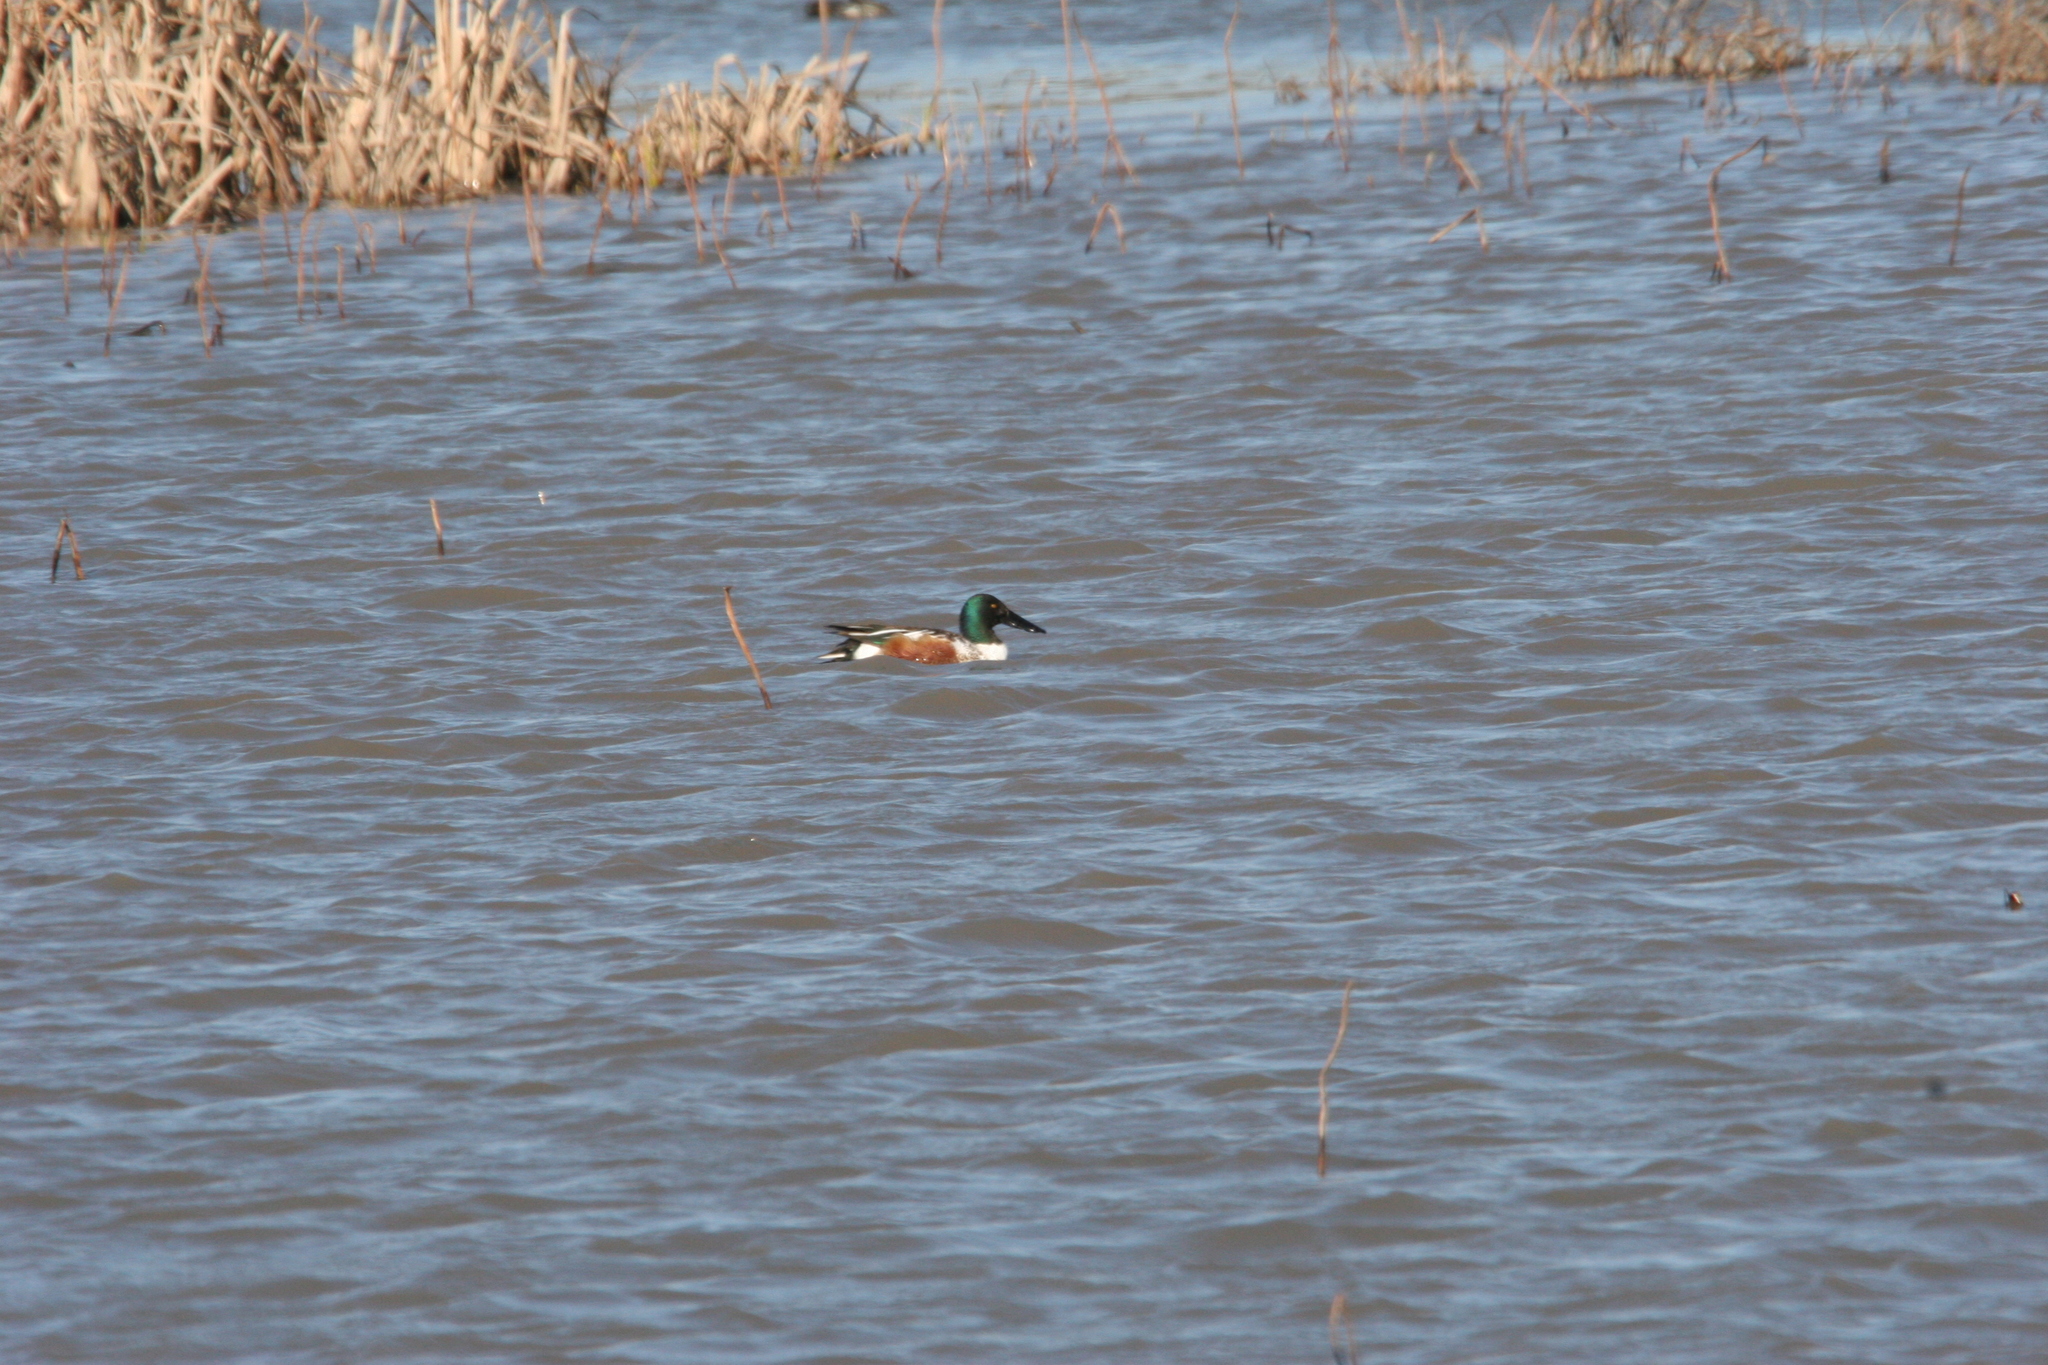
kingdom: Animalia
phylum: Chordata
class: Aves
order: Anseriformes
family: Anatidae
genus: Spatula
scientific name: Spatula clypeata
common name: Northern shoveler
